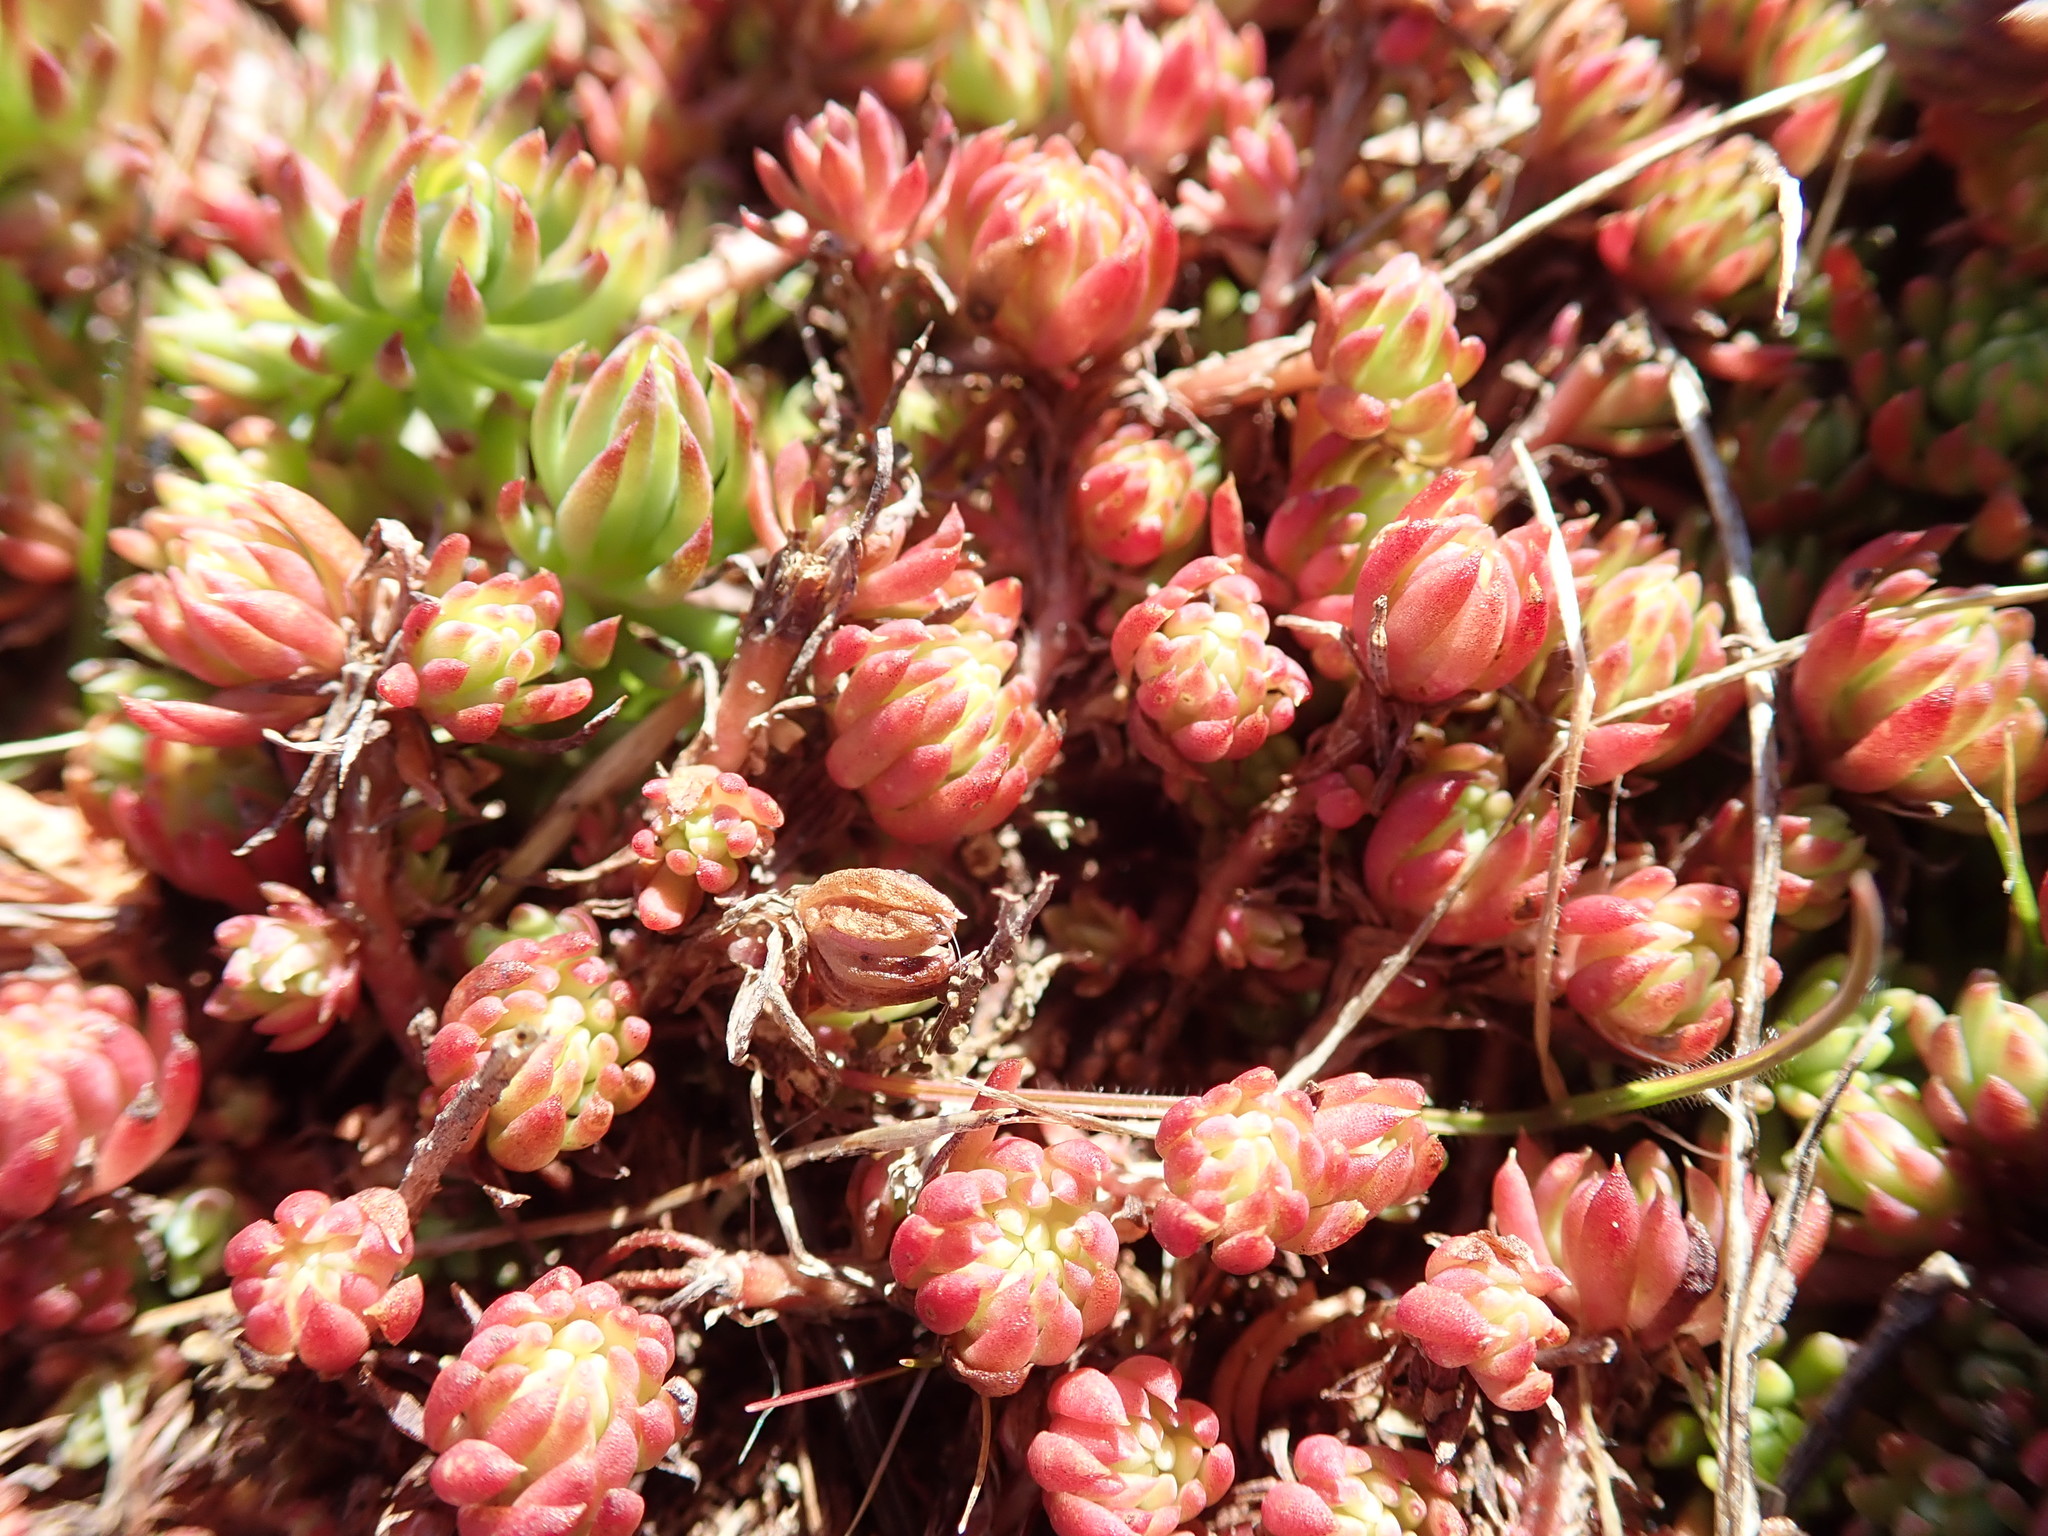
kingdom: Plantae
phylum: Tracheophyta
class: Magnoliopsida
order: Saxifragales
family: Crassulaceae
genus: Petrosedum
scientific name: Petrosedum forsterianum
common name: Forster's stonecrop
